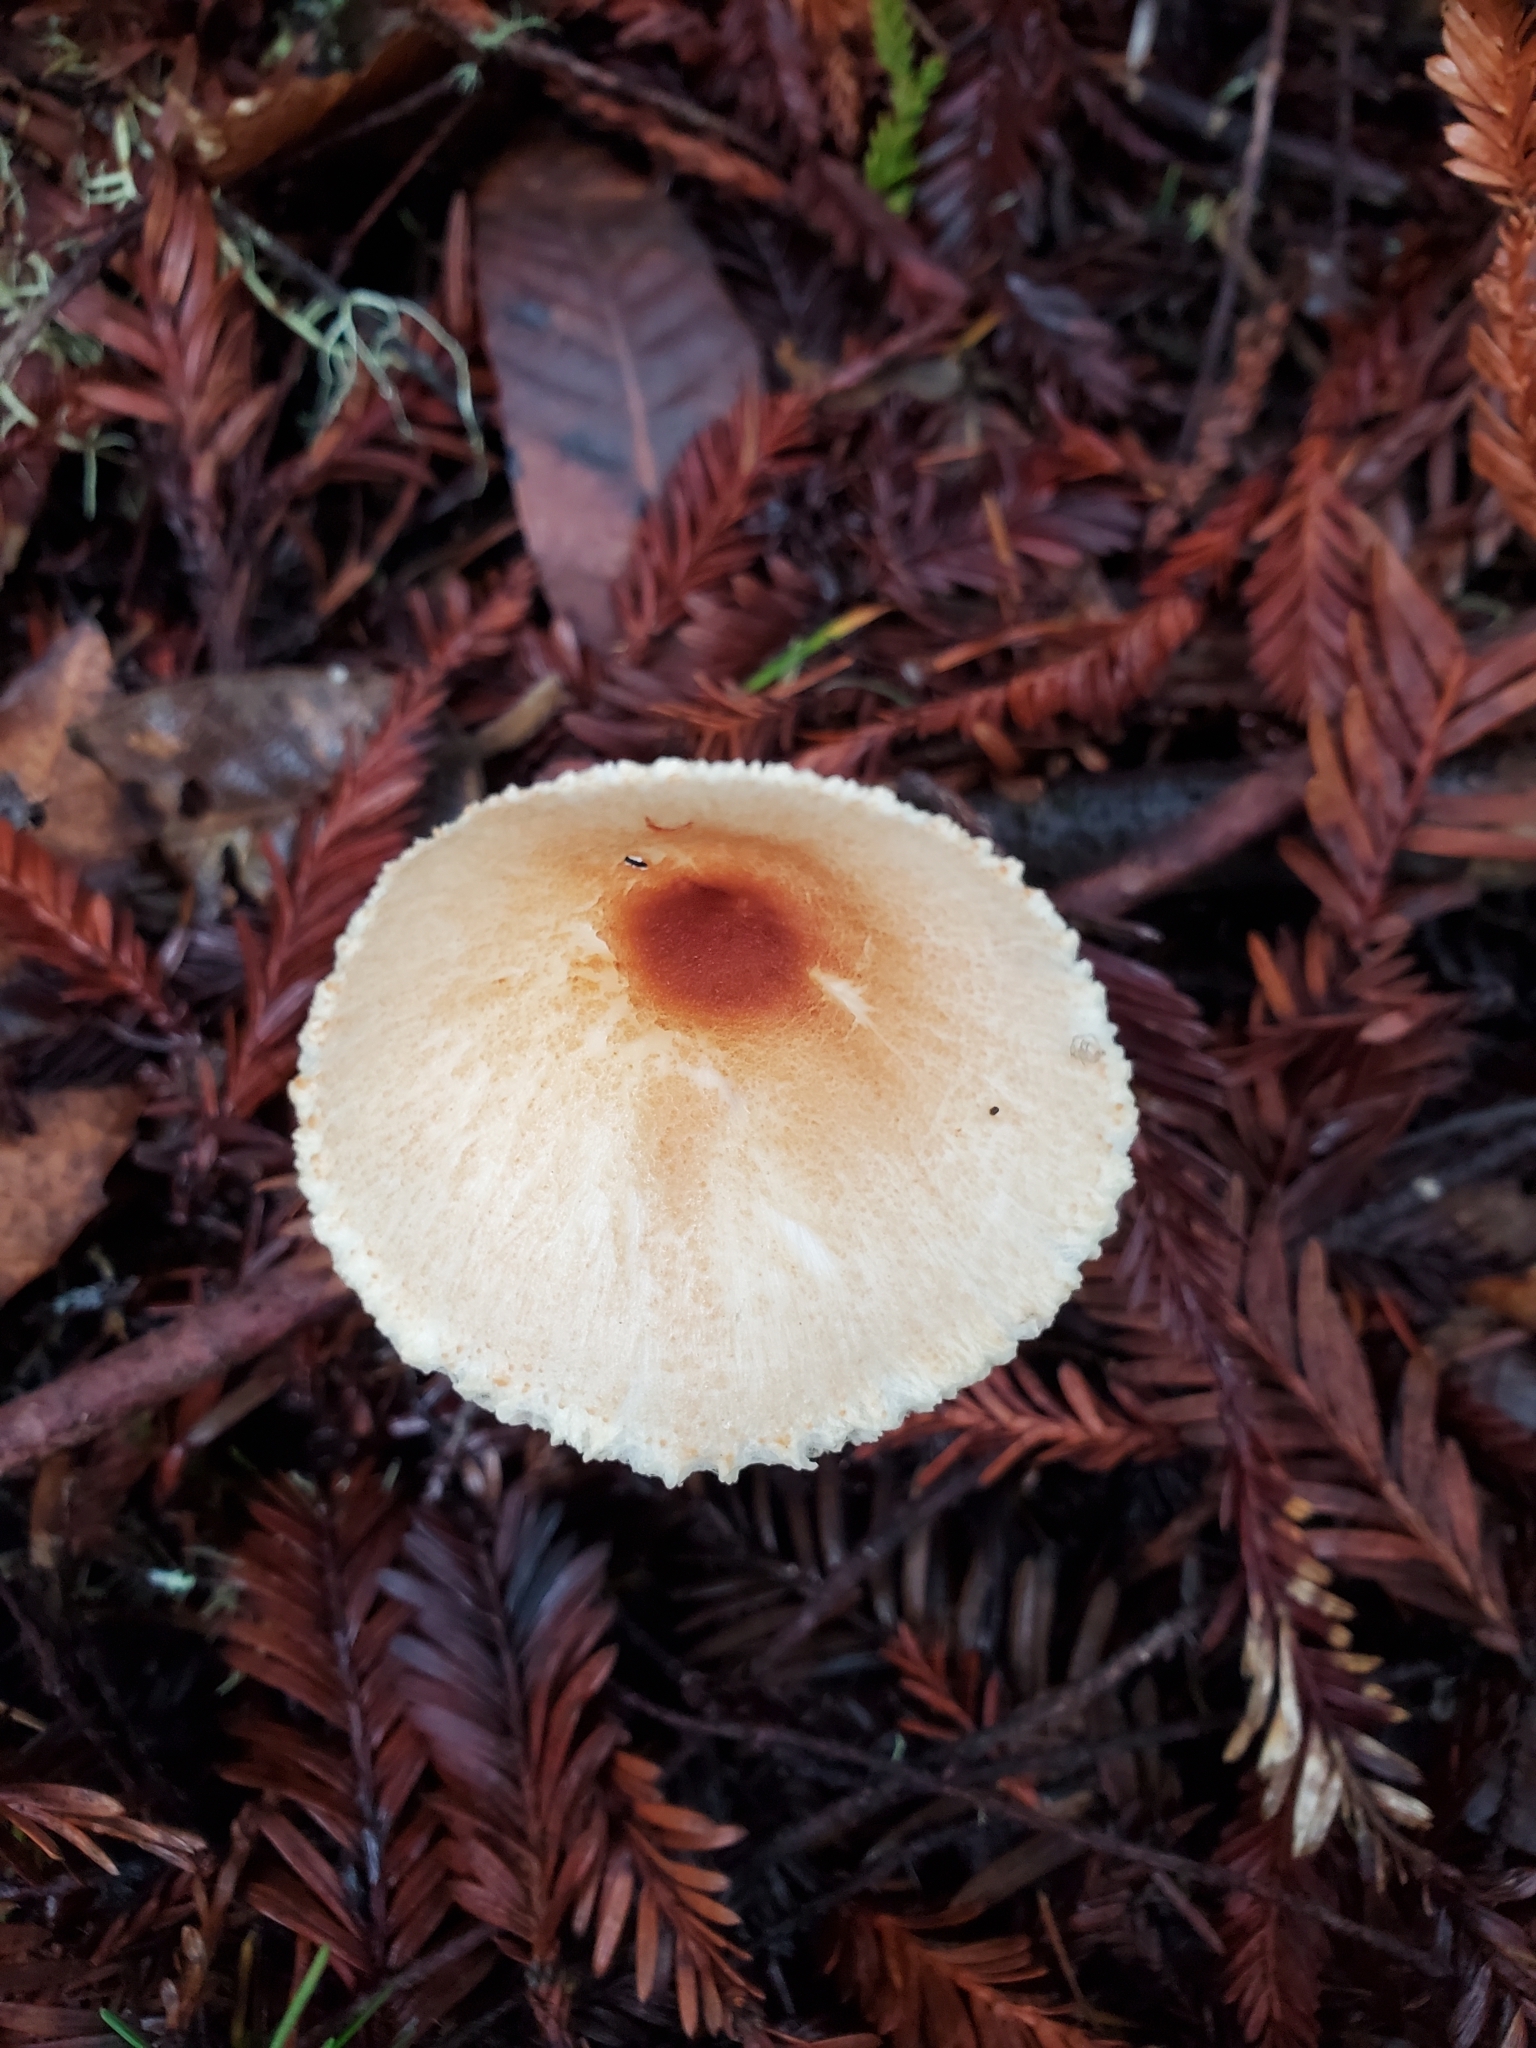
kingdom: Fungi
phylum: Basidiomycota
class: Agaricomycetes
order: Agaricales
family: Agaricaceae
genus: Lepiota
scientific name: Lepiota magnispora
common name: Yellowfoot dapperling
